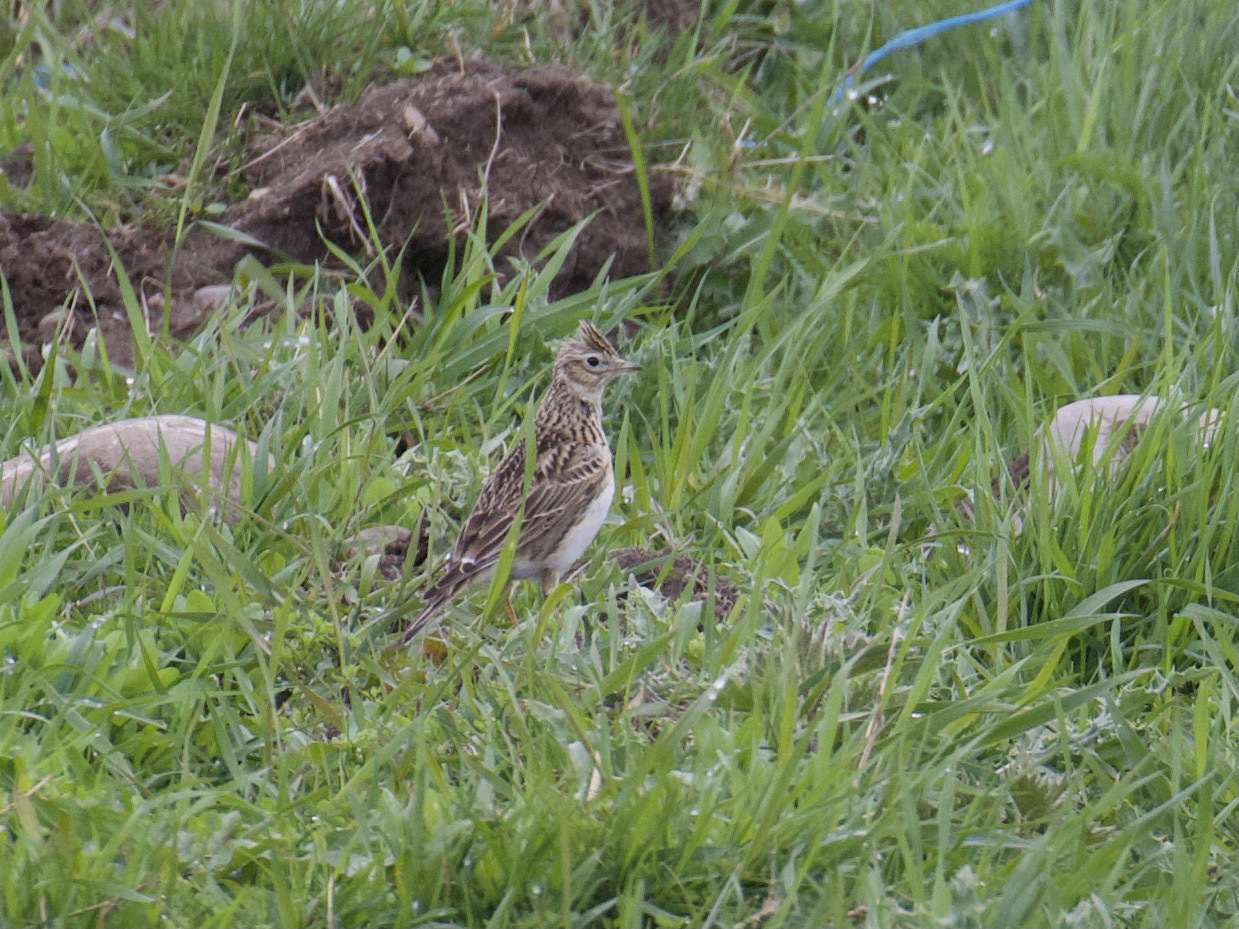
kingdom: Animalia
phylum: Chordata
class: Aves
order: Passeriformes
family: Alaudidae
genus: Alauda
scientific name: Alauda arvensis
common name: Eurasian skylark
